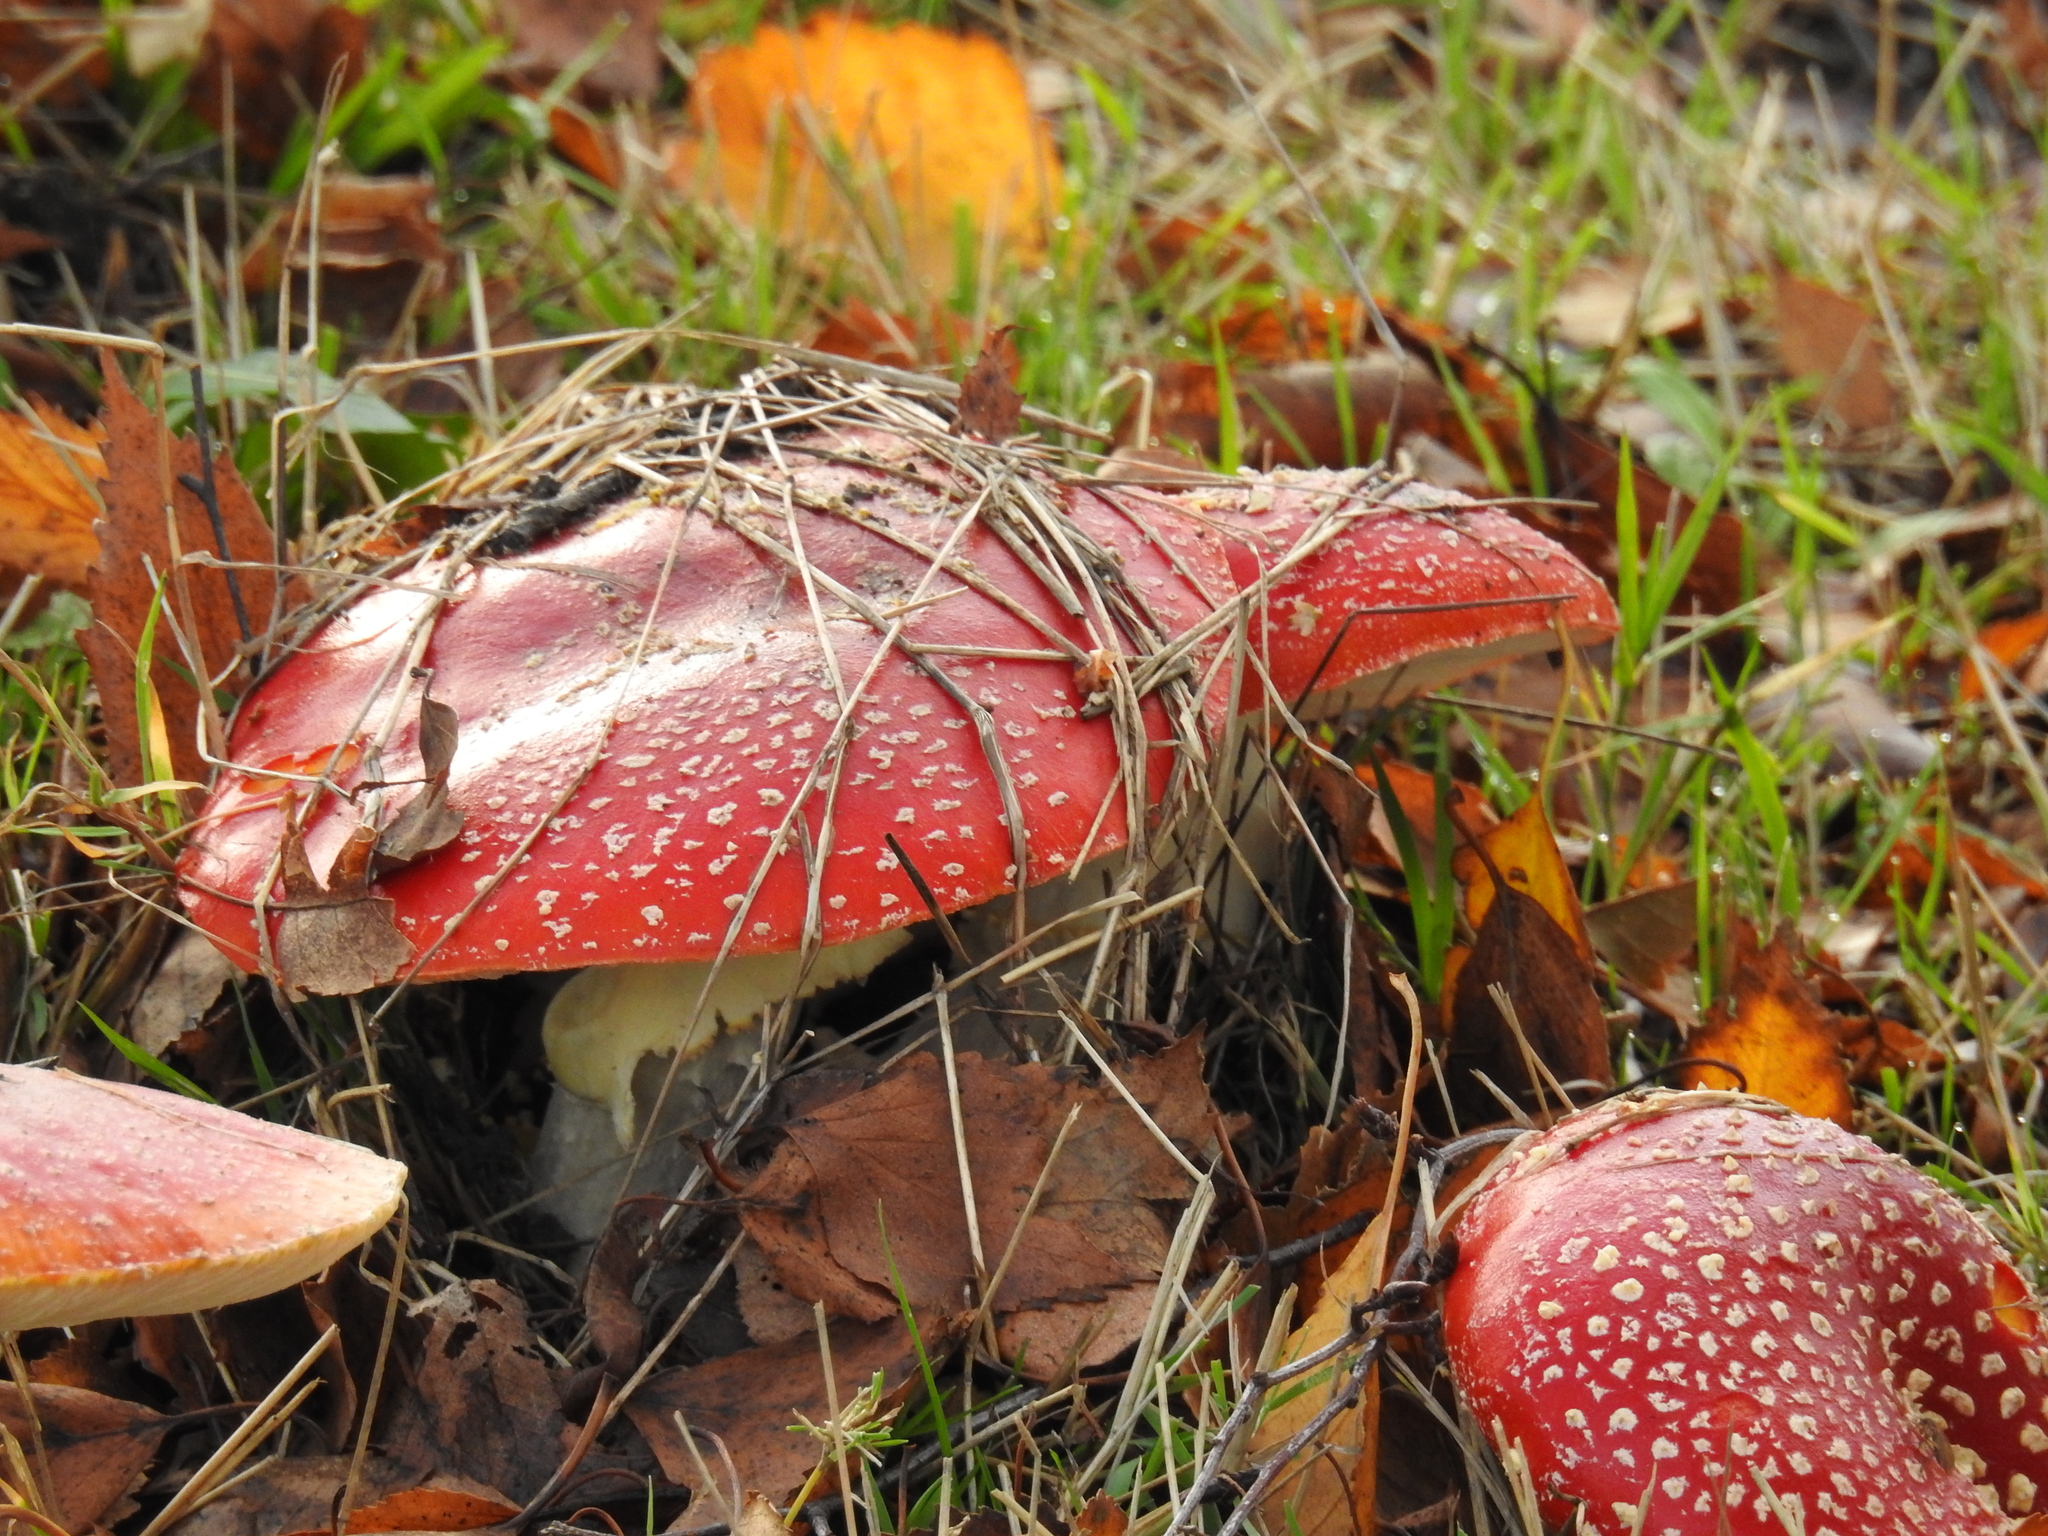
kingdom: Fungi
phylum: Basidiomycota
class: Agaricomycetes
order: Agaricales
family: Amanitaceae
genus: Amanita
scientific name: Amanita muscaria
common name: Fly agaric
